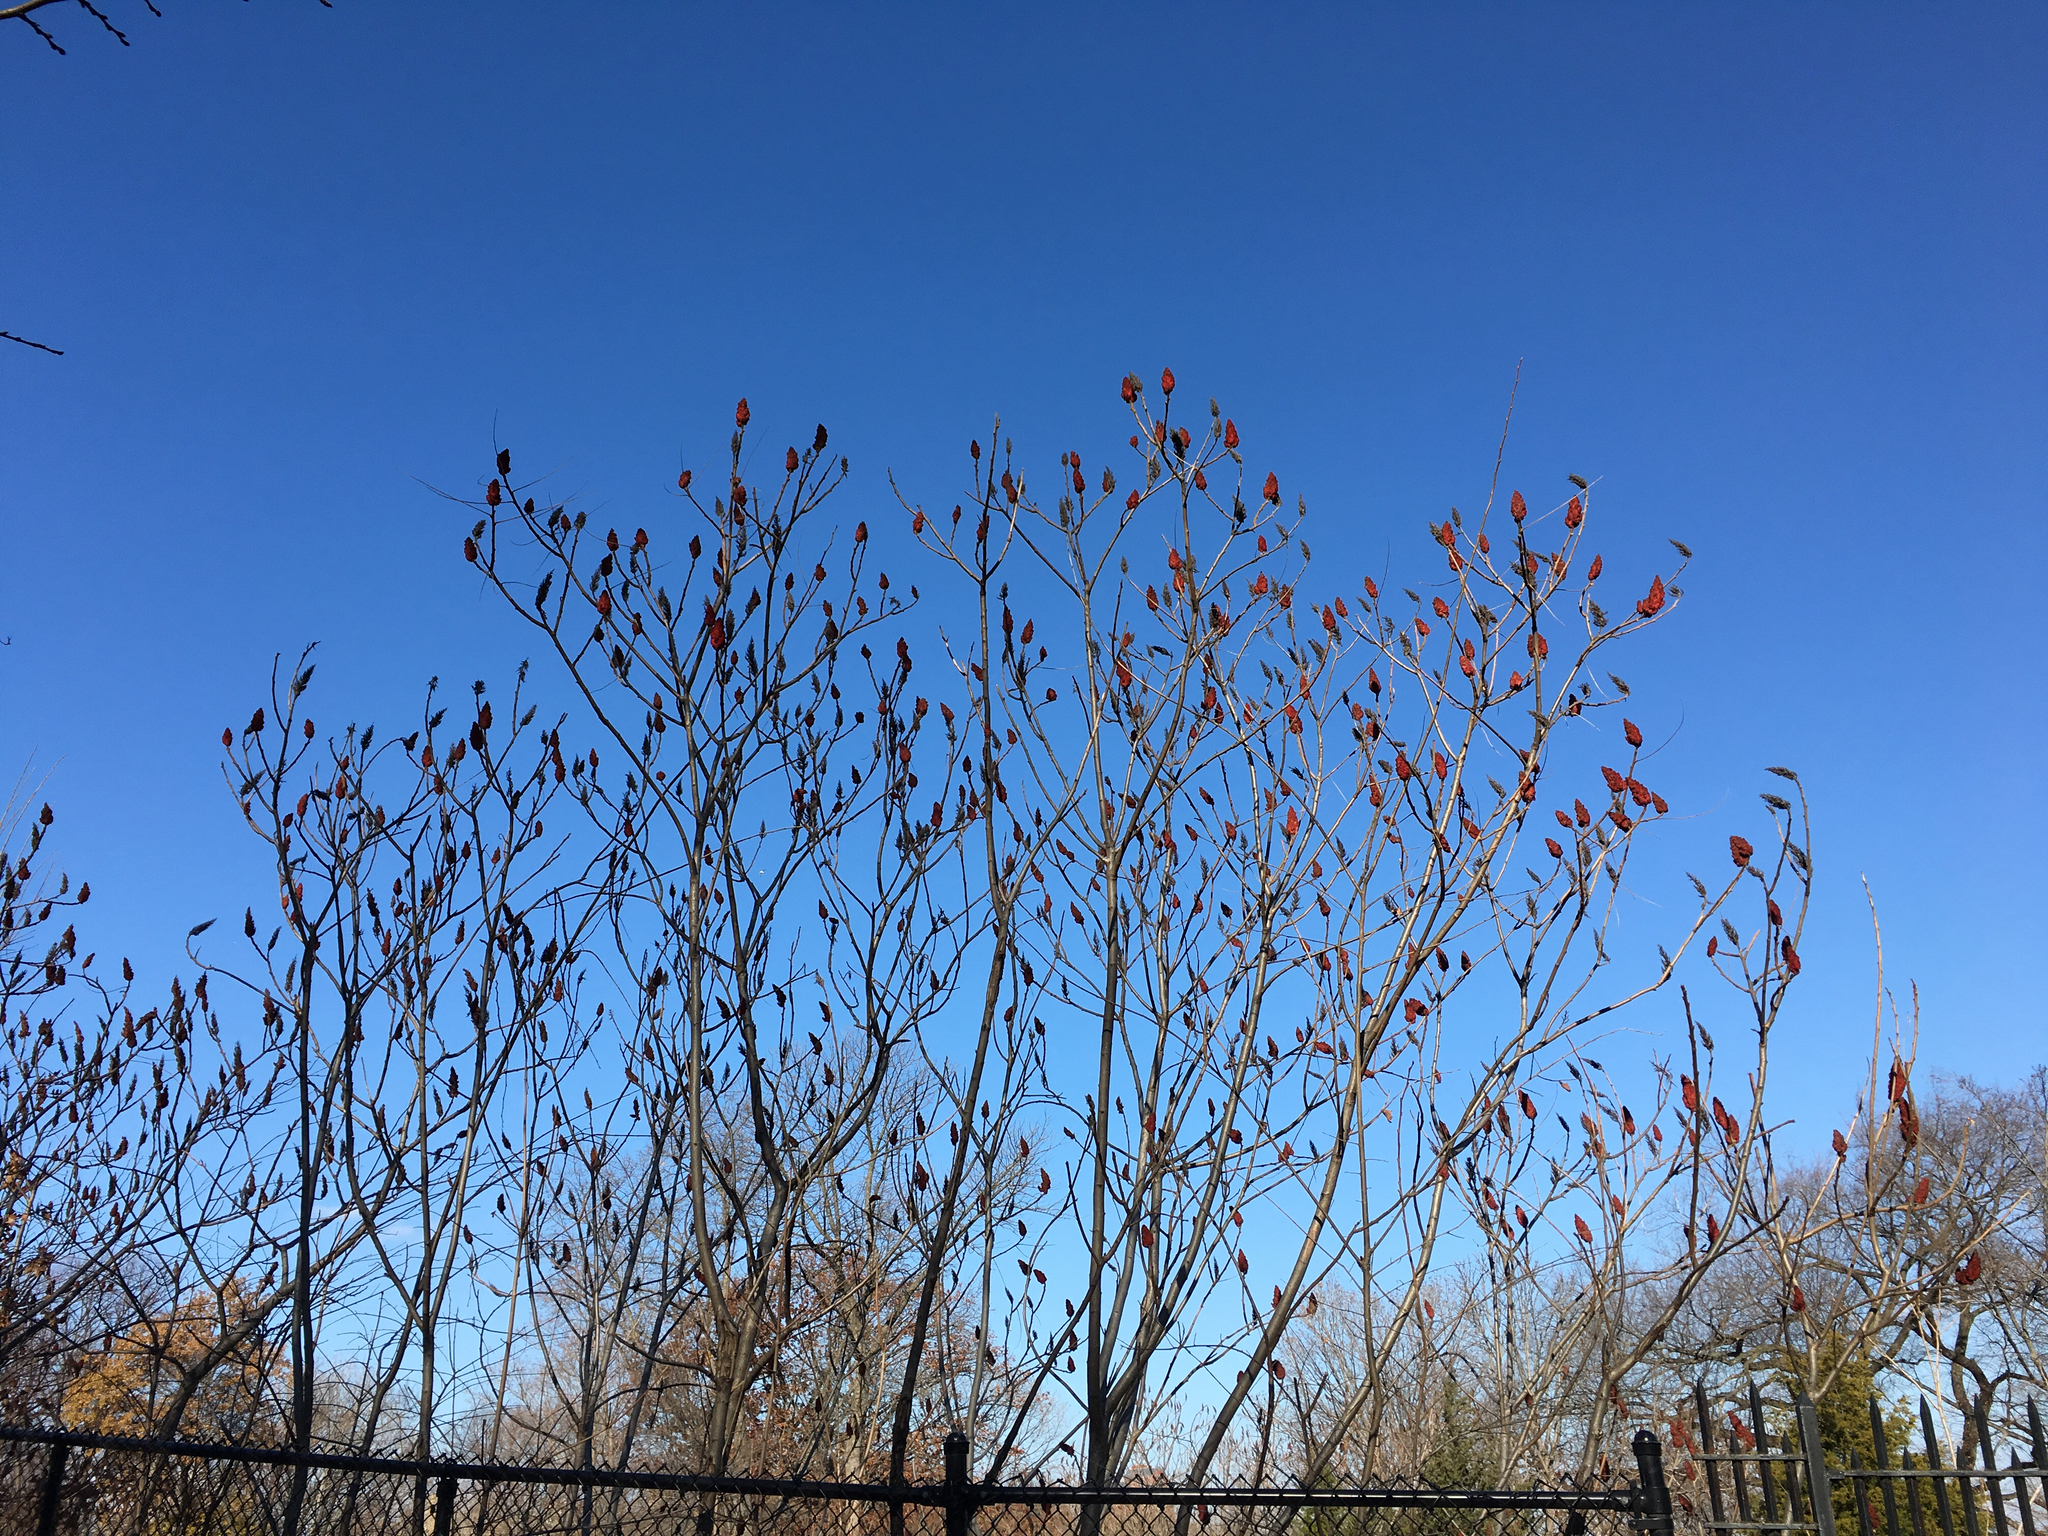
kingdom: Plantae
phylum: Tracheophyta
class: Magnoliopsida
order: Sapindales
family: Anacardiaceae
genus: Rhus
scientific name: Rhus typhina
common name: Staghorn sumac
